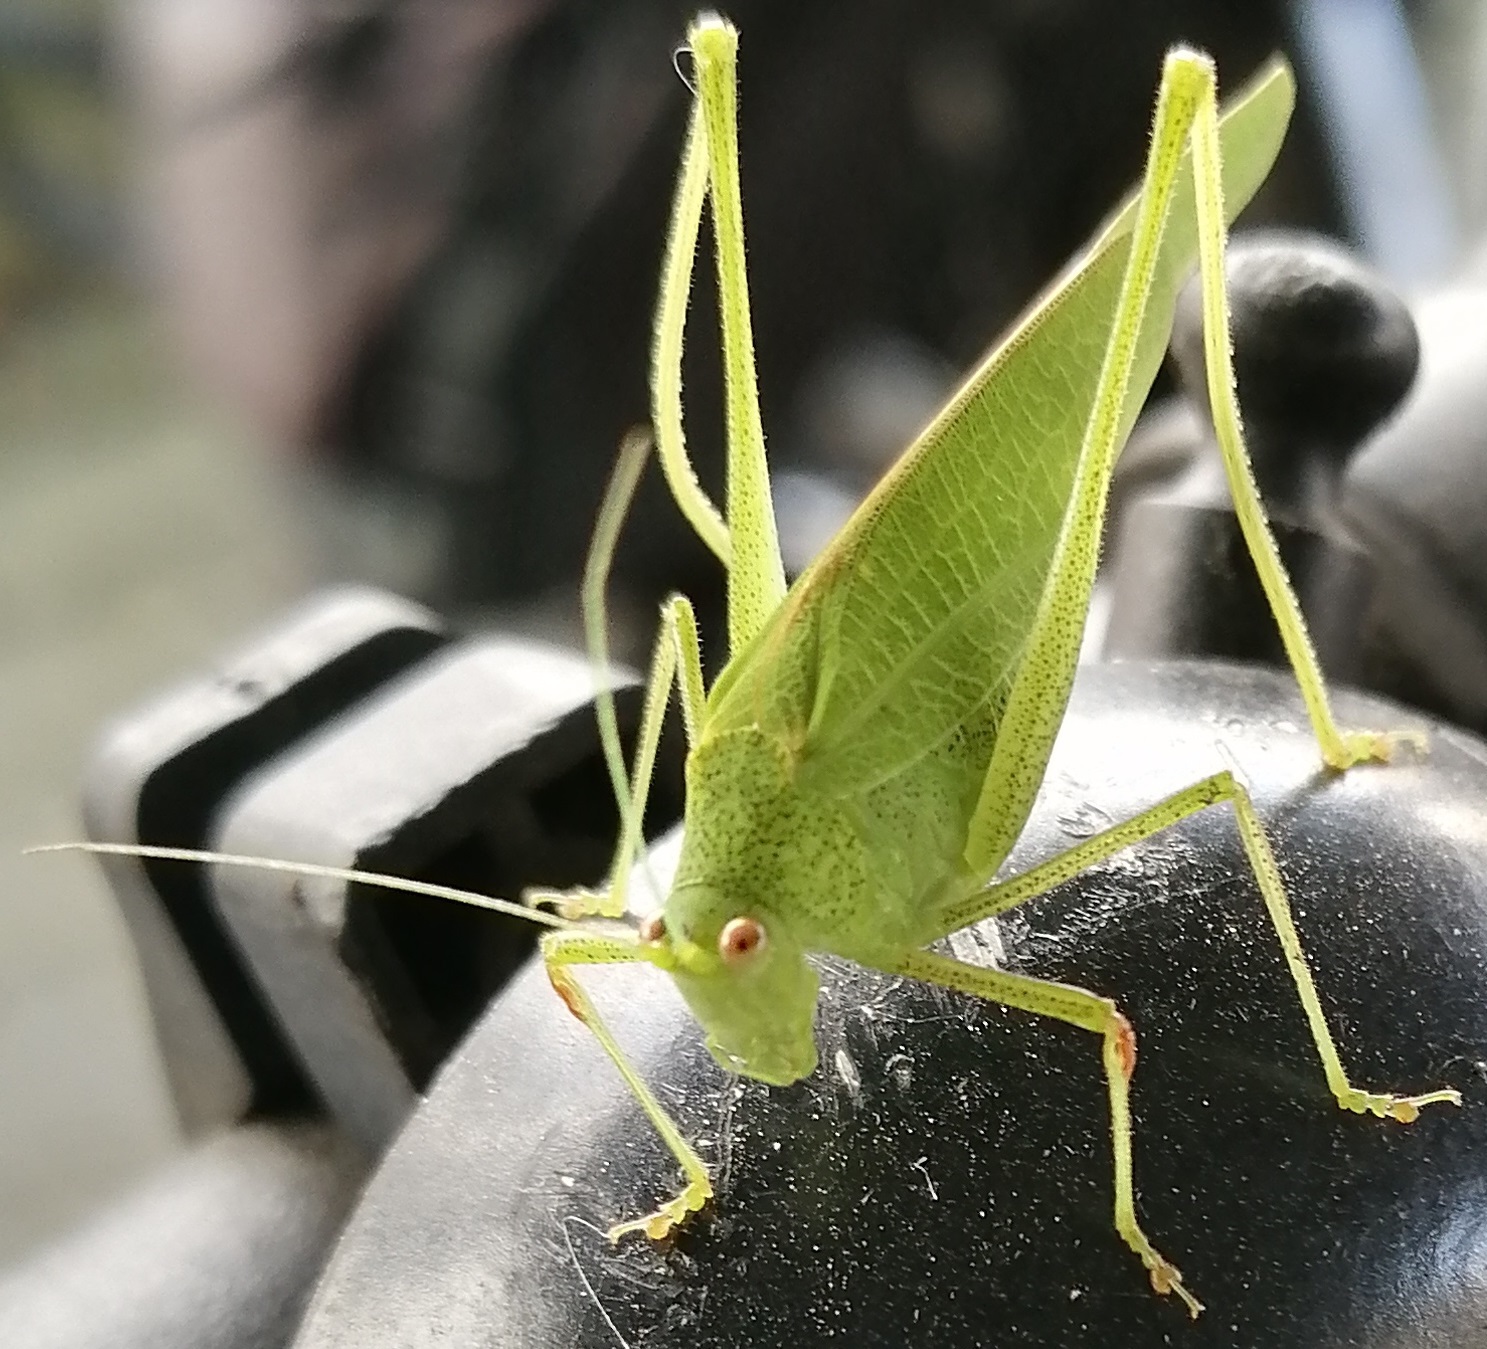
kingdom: Animalia
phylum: Arthropoda
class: Insecta
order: Orthoptera
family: Tettigoniidae
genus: Phaneroptera
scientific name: Phaneroptera nana
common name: Southern sickle bush-cricket
